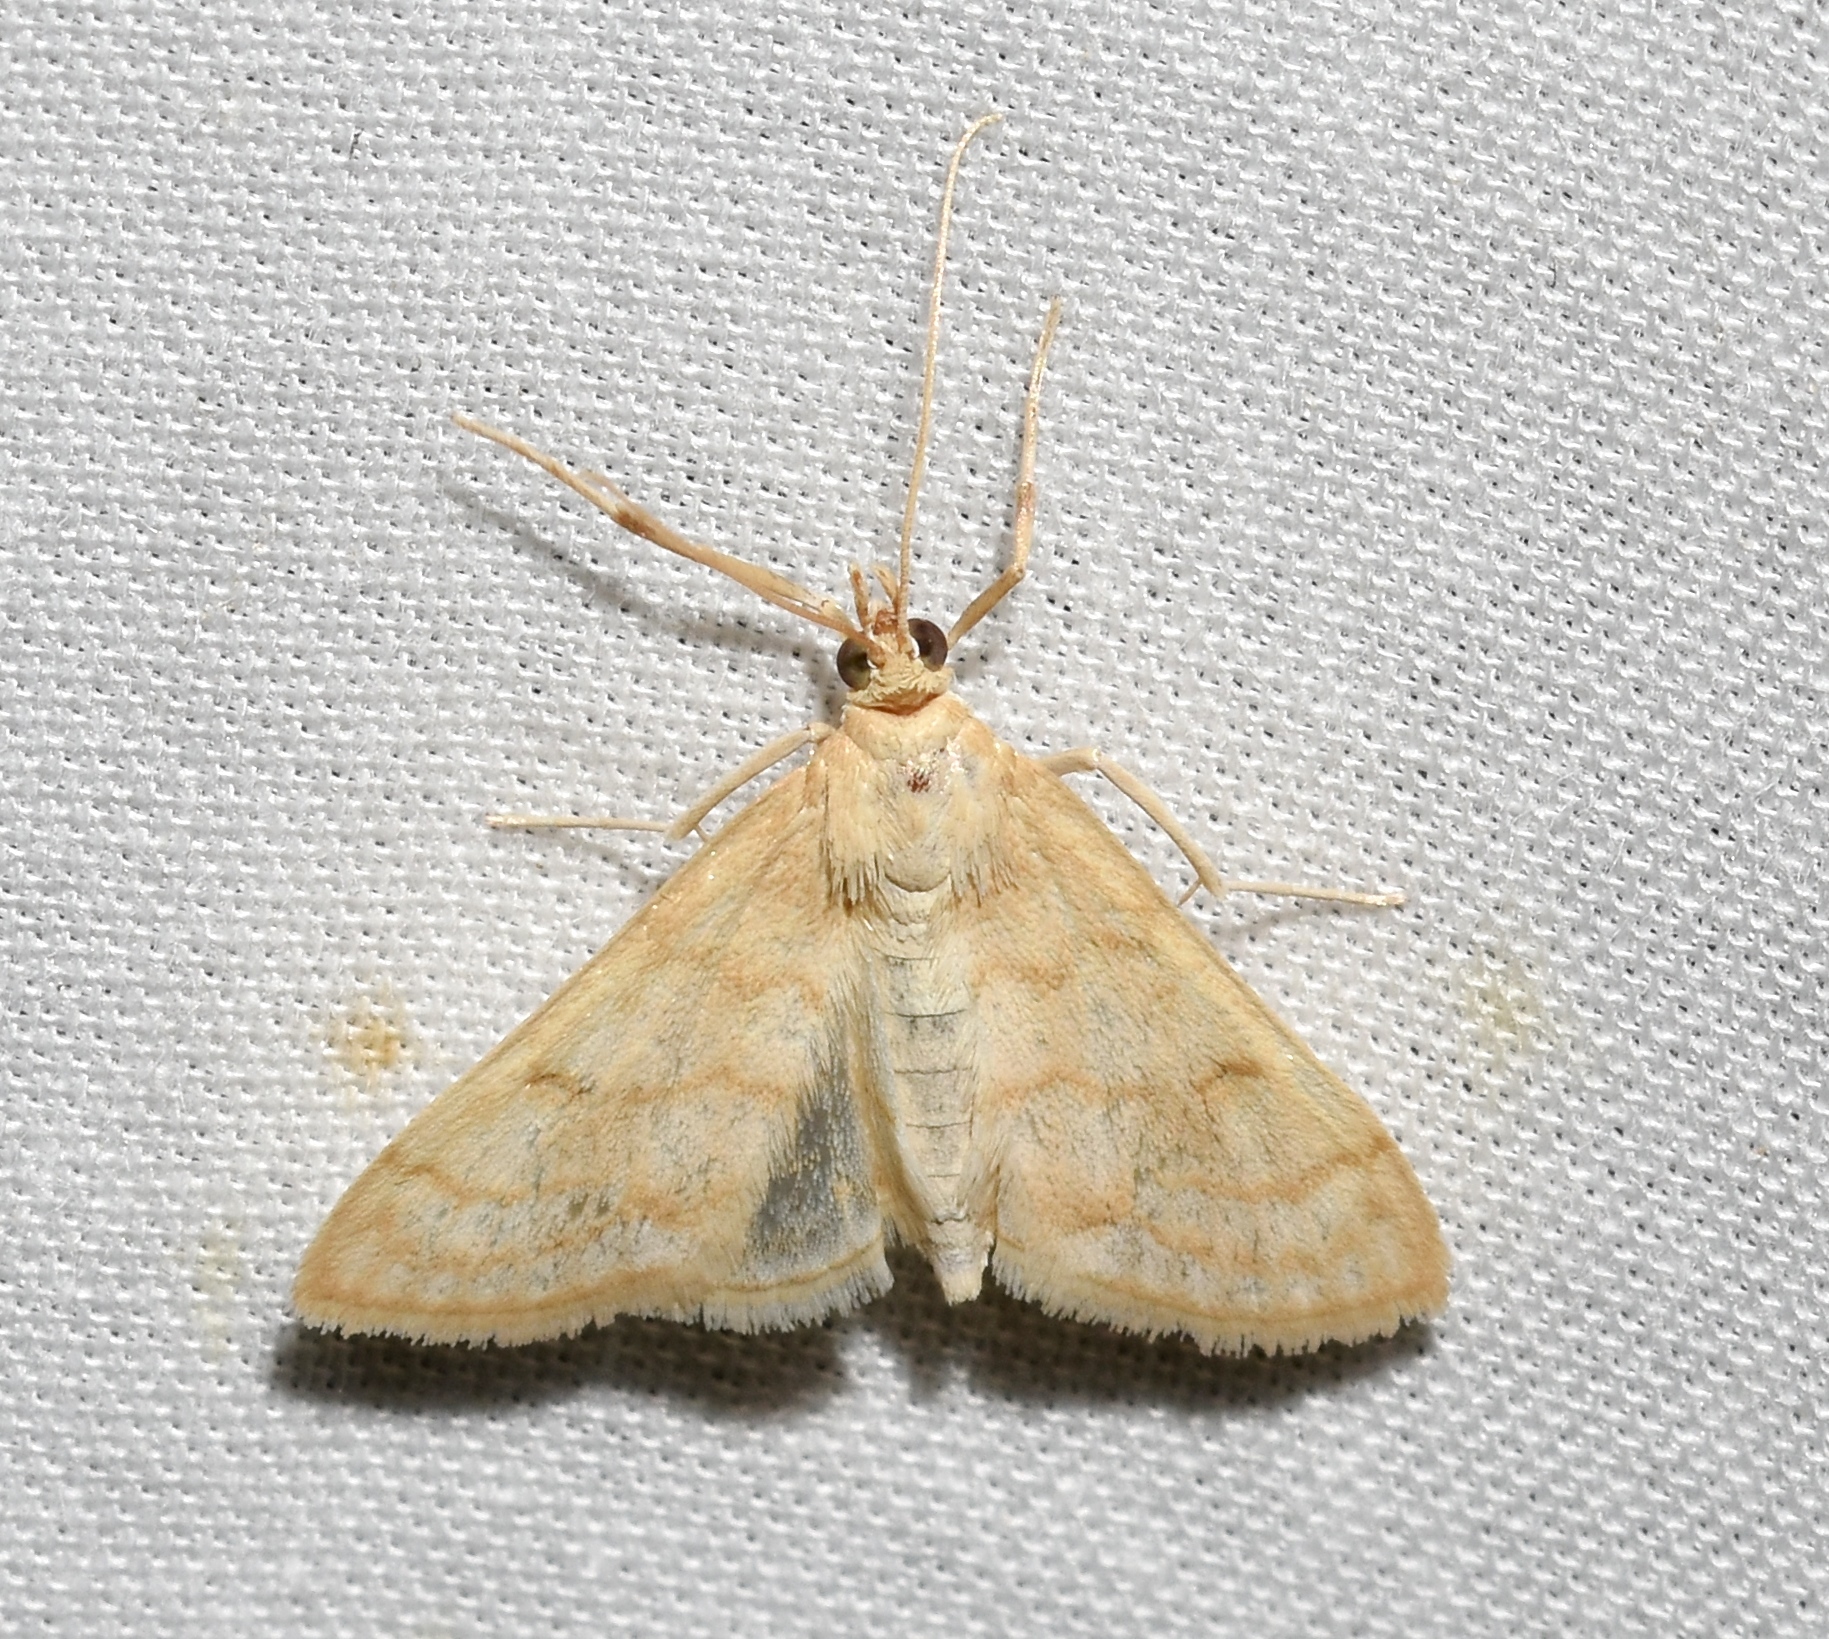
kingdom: Animalia
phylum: Arthropoda
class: Insecta
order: Lepidoptera
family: Crambidae
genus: Paracorsia
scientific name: Paracorsia repandalis
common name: Mullein moth
